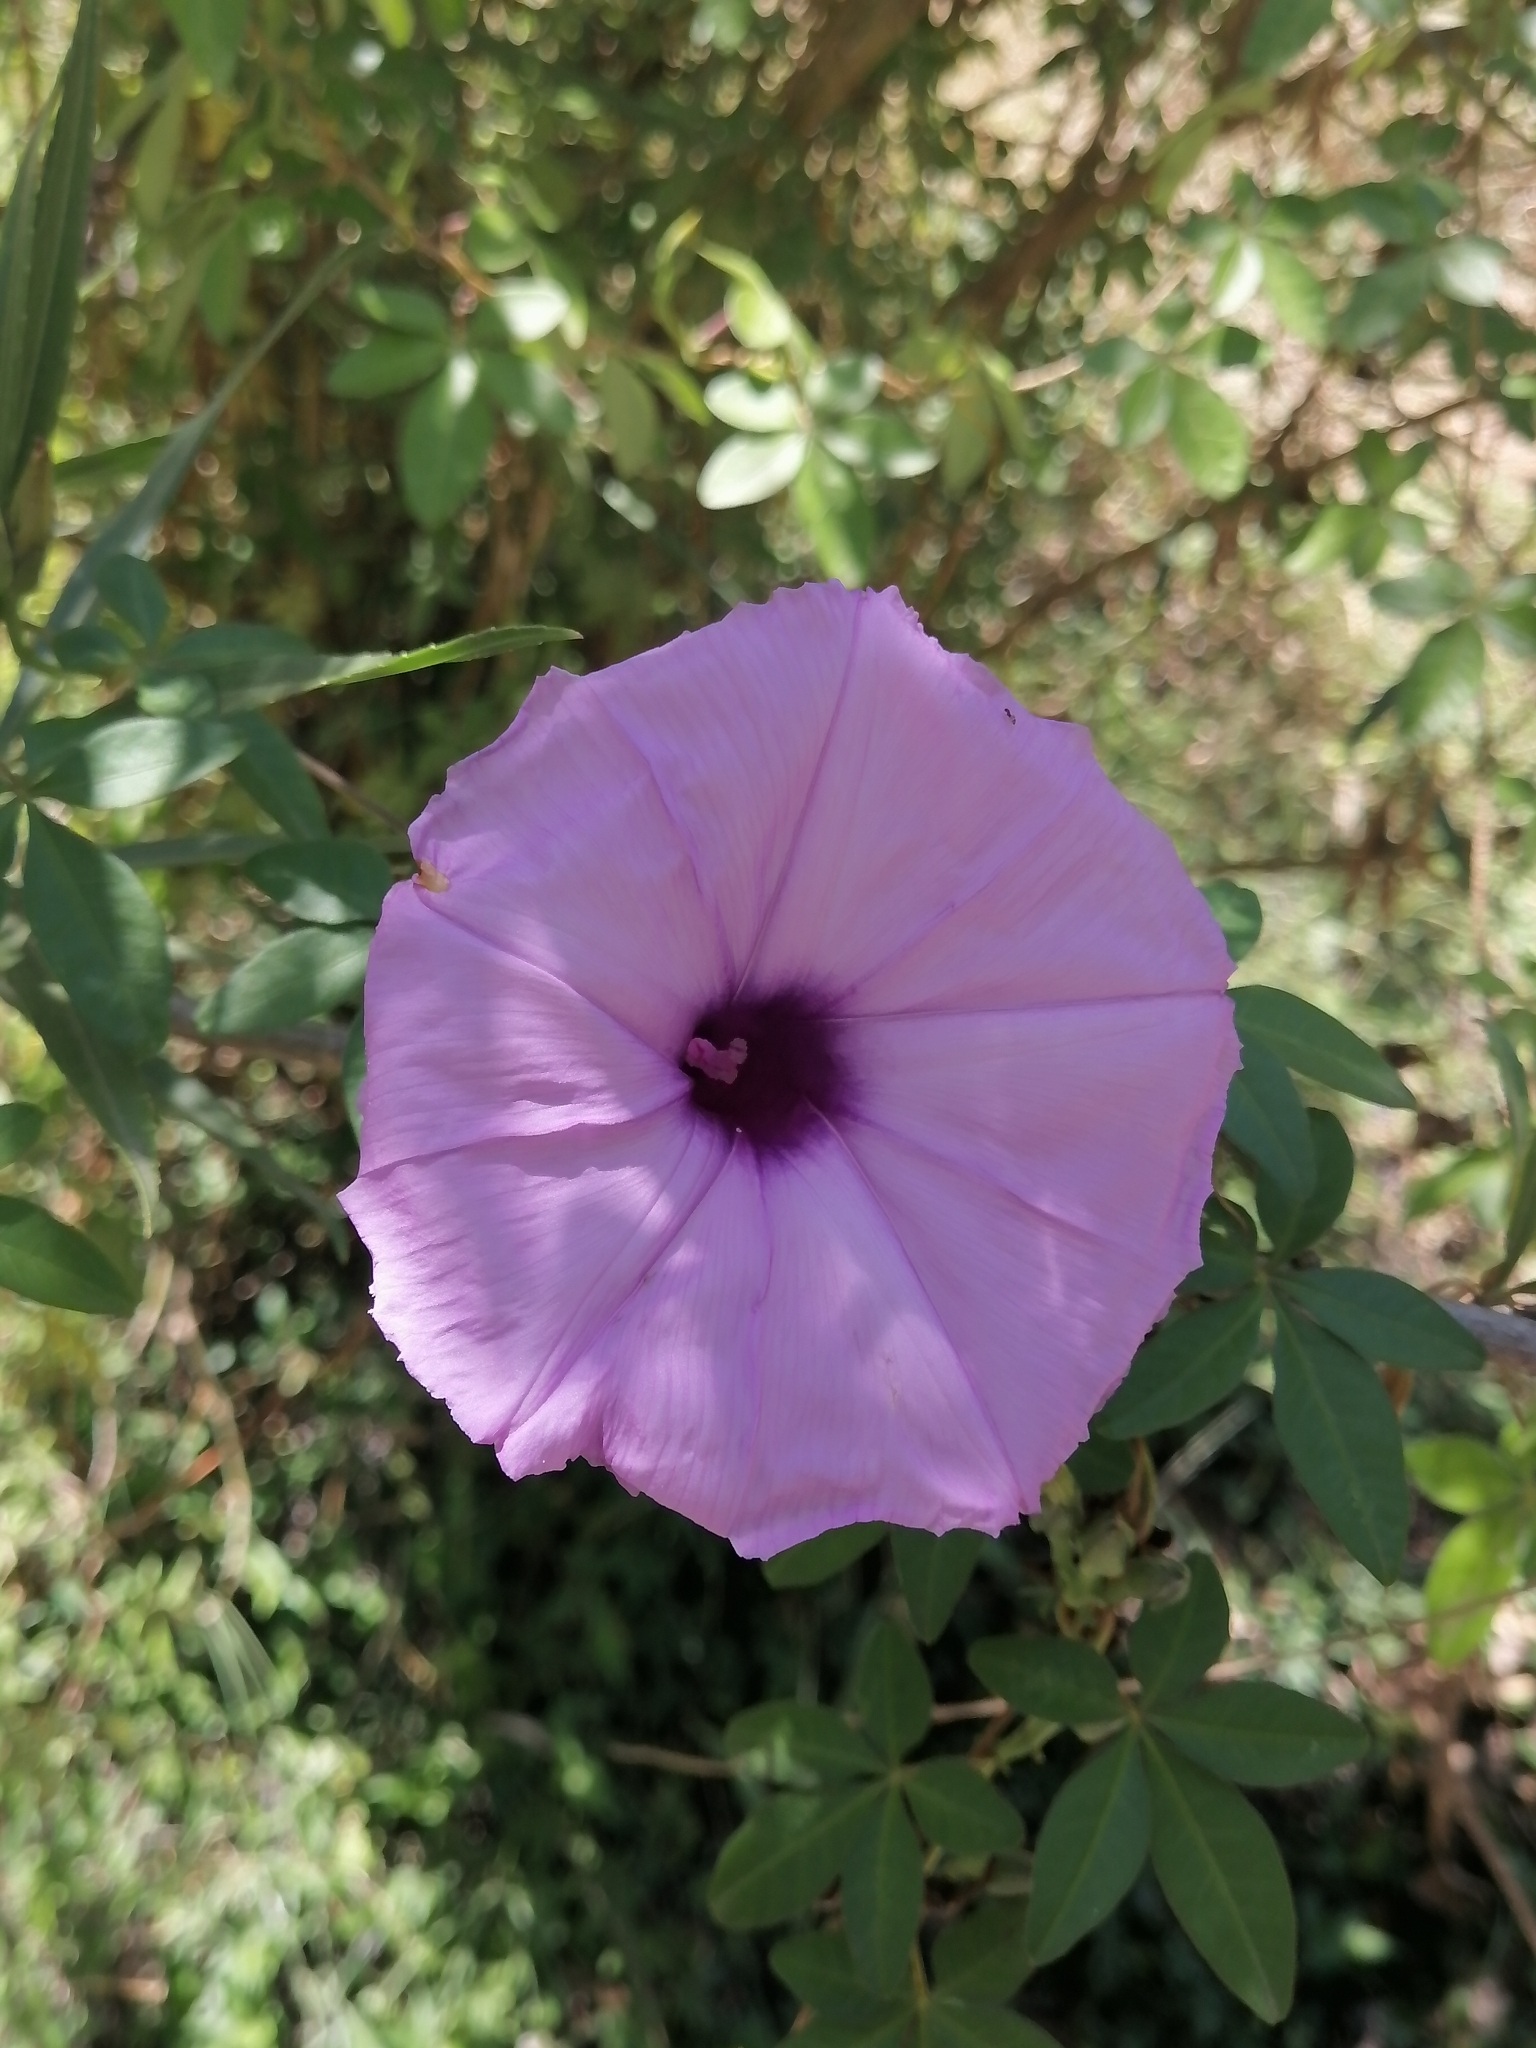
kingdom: Plantae
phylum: Tracheophyta
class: Magnoliopsida
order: Solanales
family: Convolvulaceae
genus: Ipomoea
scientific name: Ipomoea cairica
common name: Mile a minute vine
